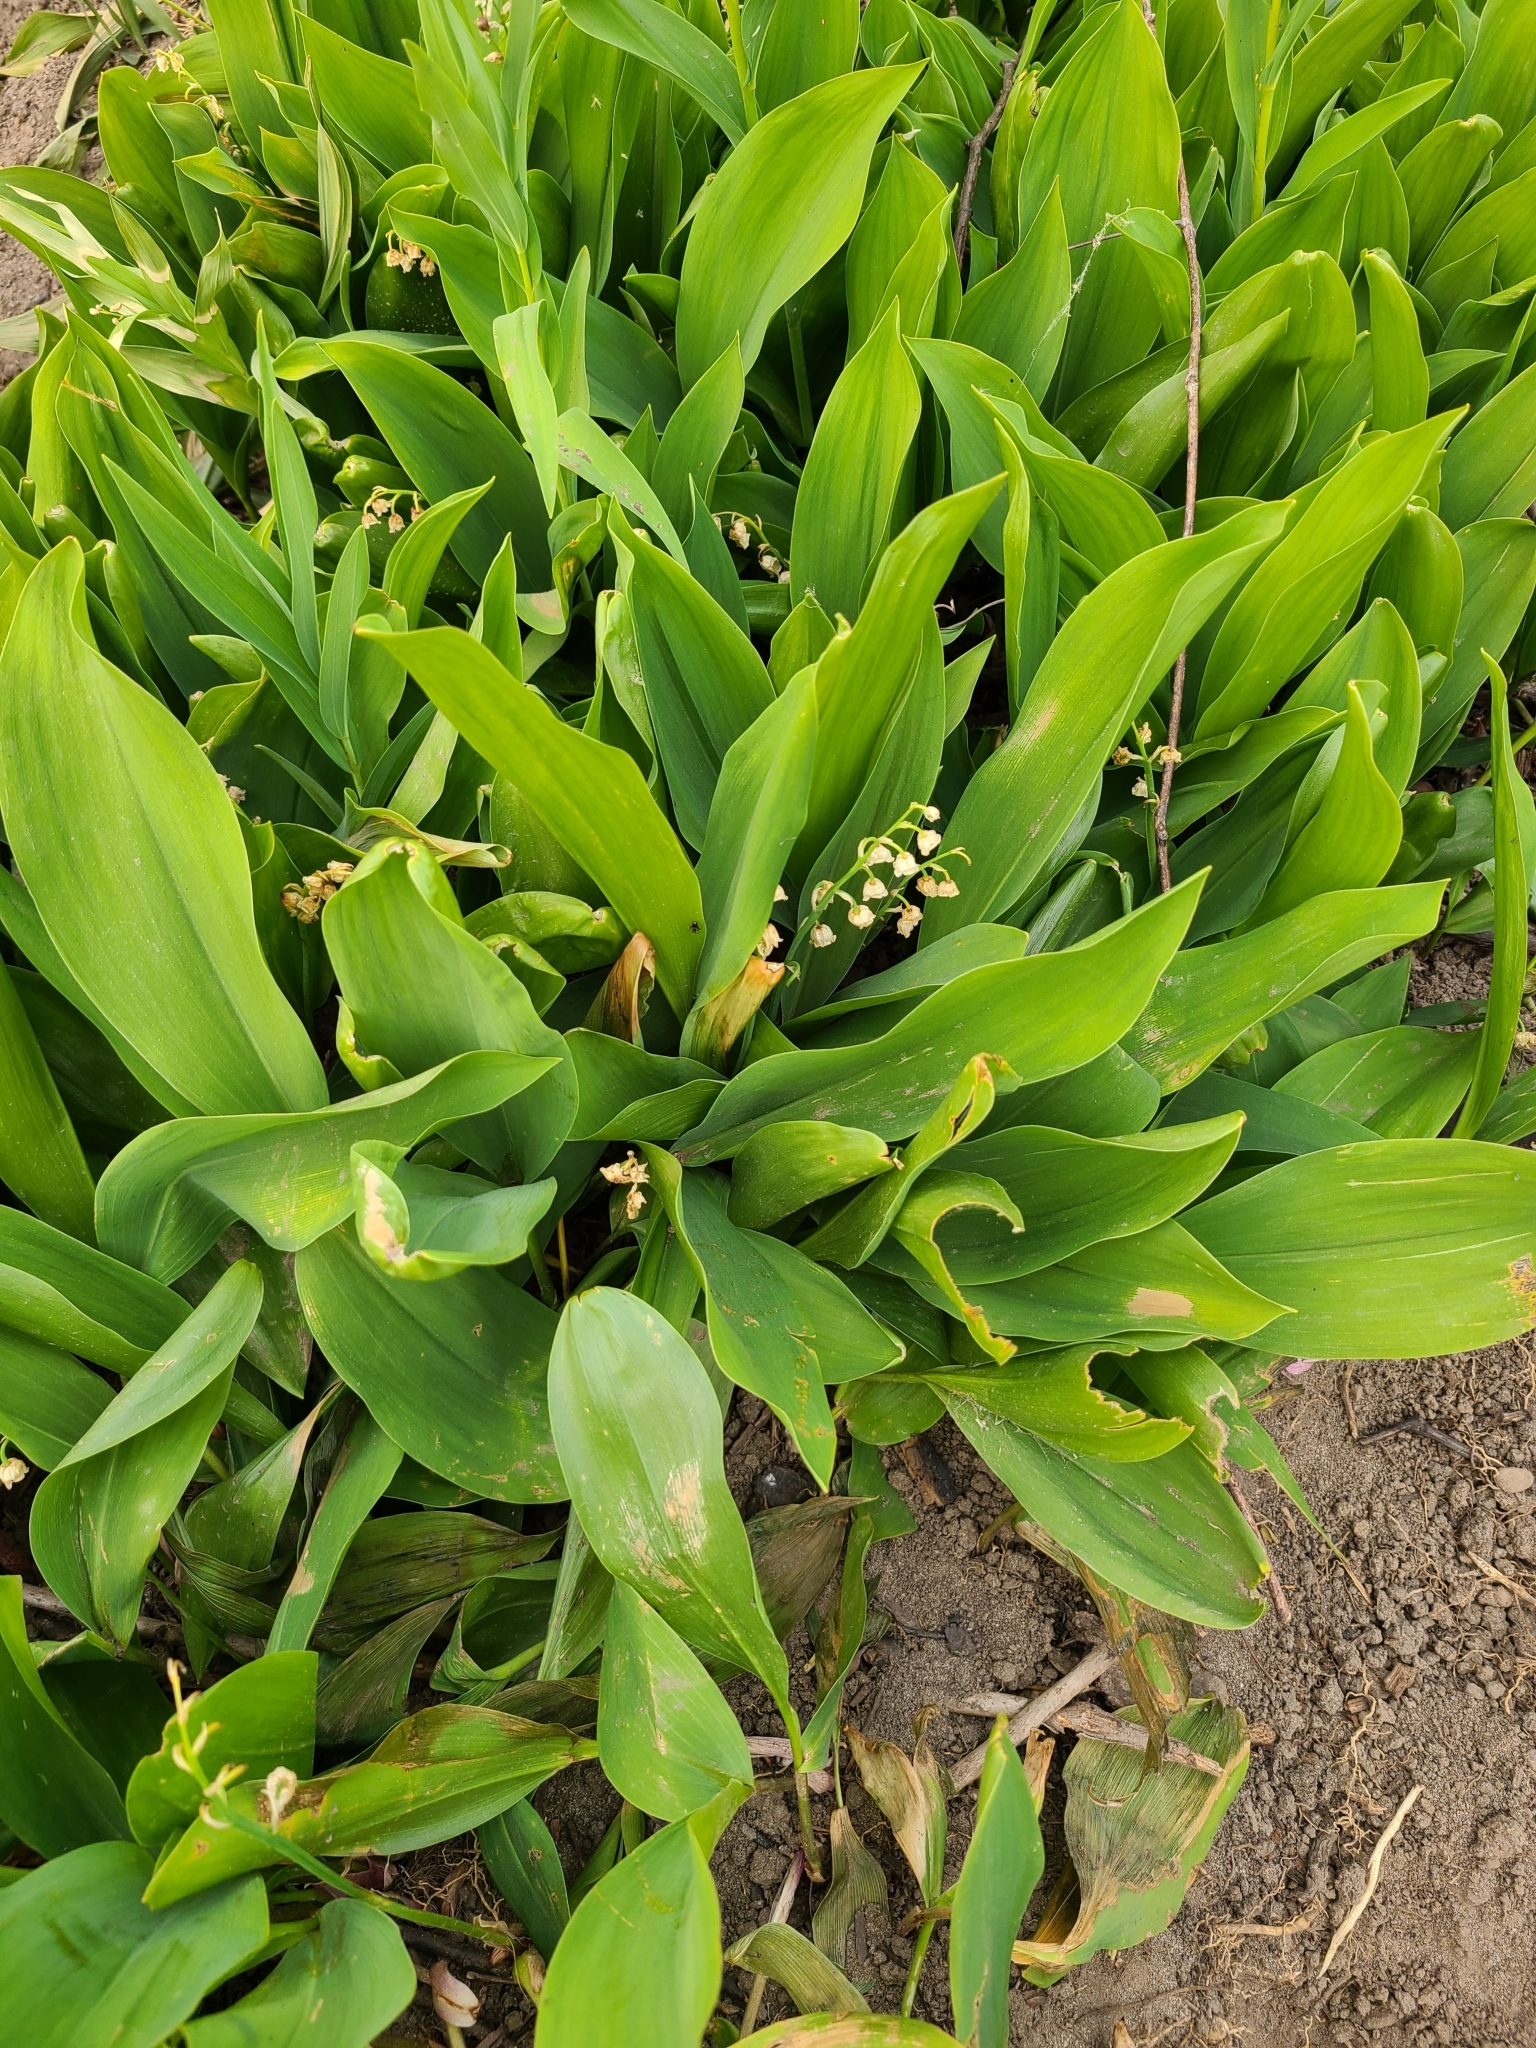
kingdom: Plantae
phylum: Tracheophyta
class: Liliopsida
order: Asparagales
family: Asparagaceae
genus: Convallaria
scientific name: Convallaria majalis
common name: Lily-of-the-valley
